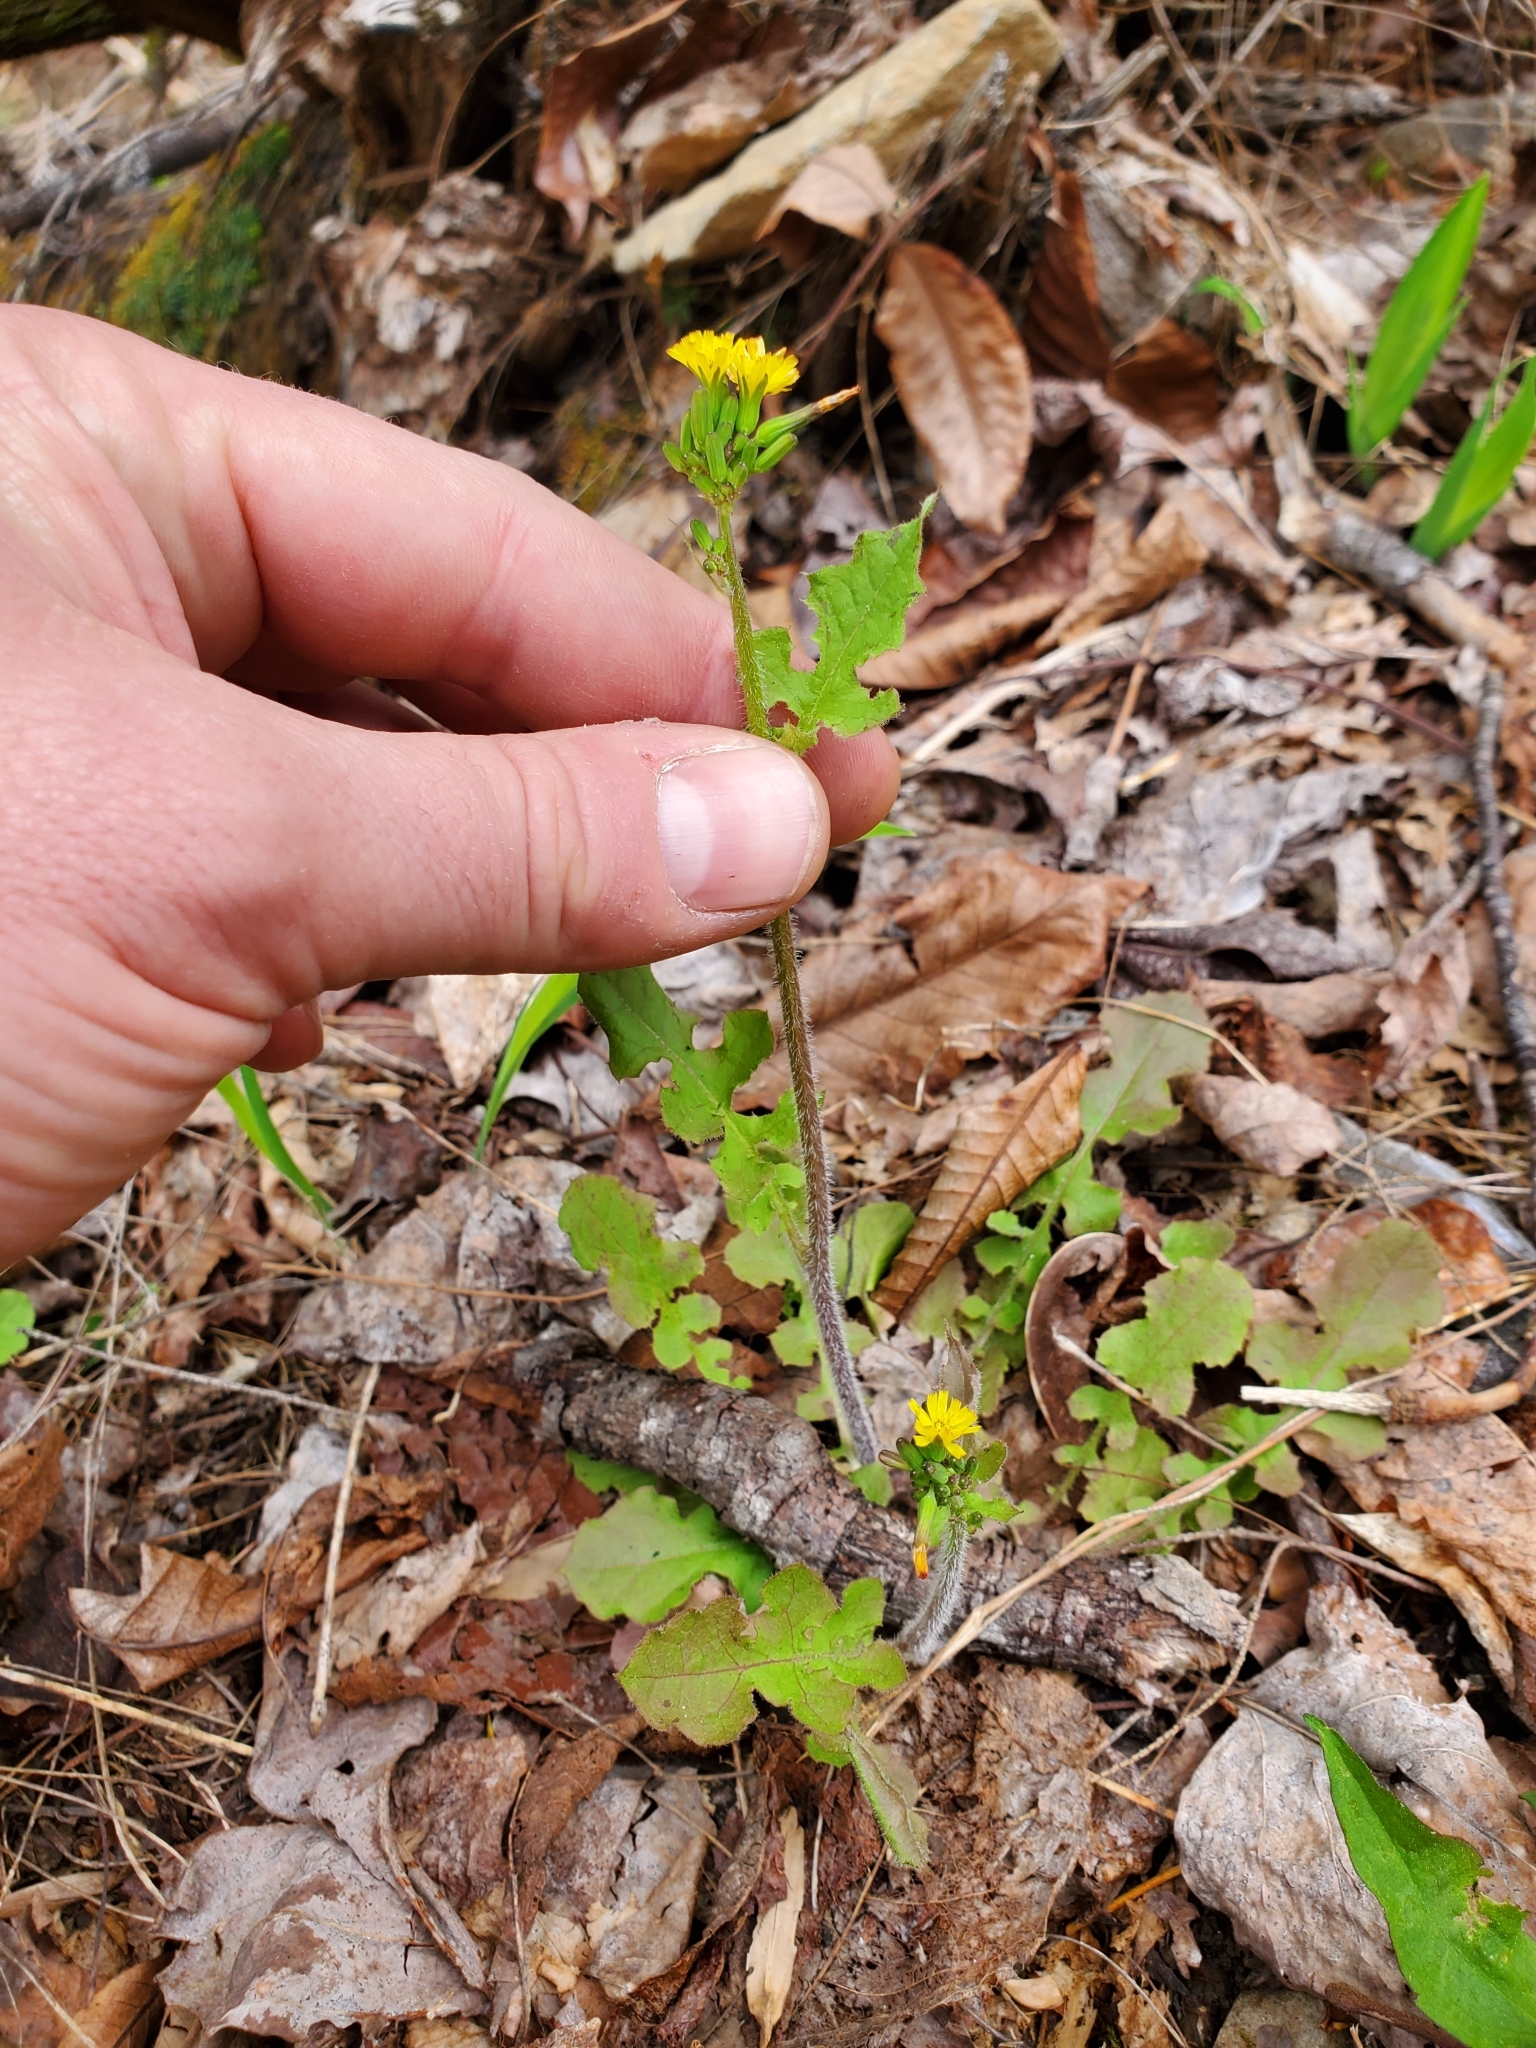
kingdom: Plantae
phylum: Tracheophyta
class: Magnoliopsida
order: Asterales
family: Asteraceae
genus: Youngia
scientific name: Youngia japonica
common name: Oriental false hawksbeard
